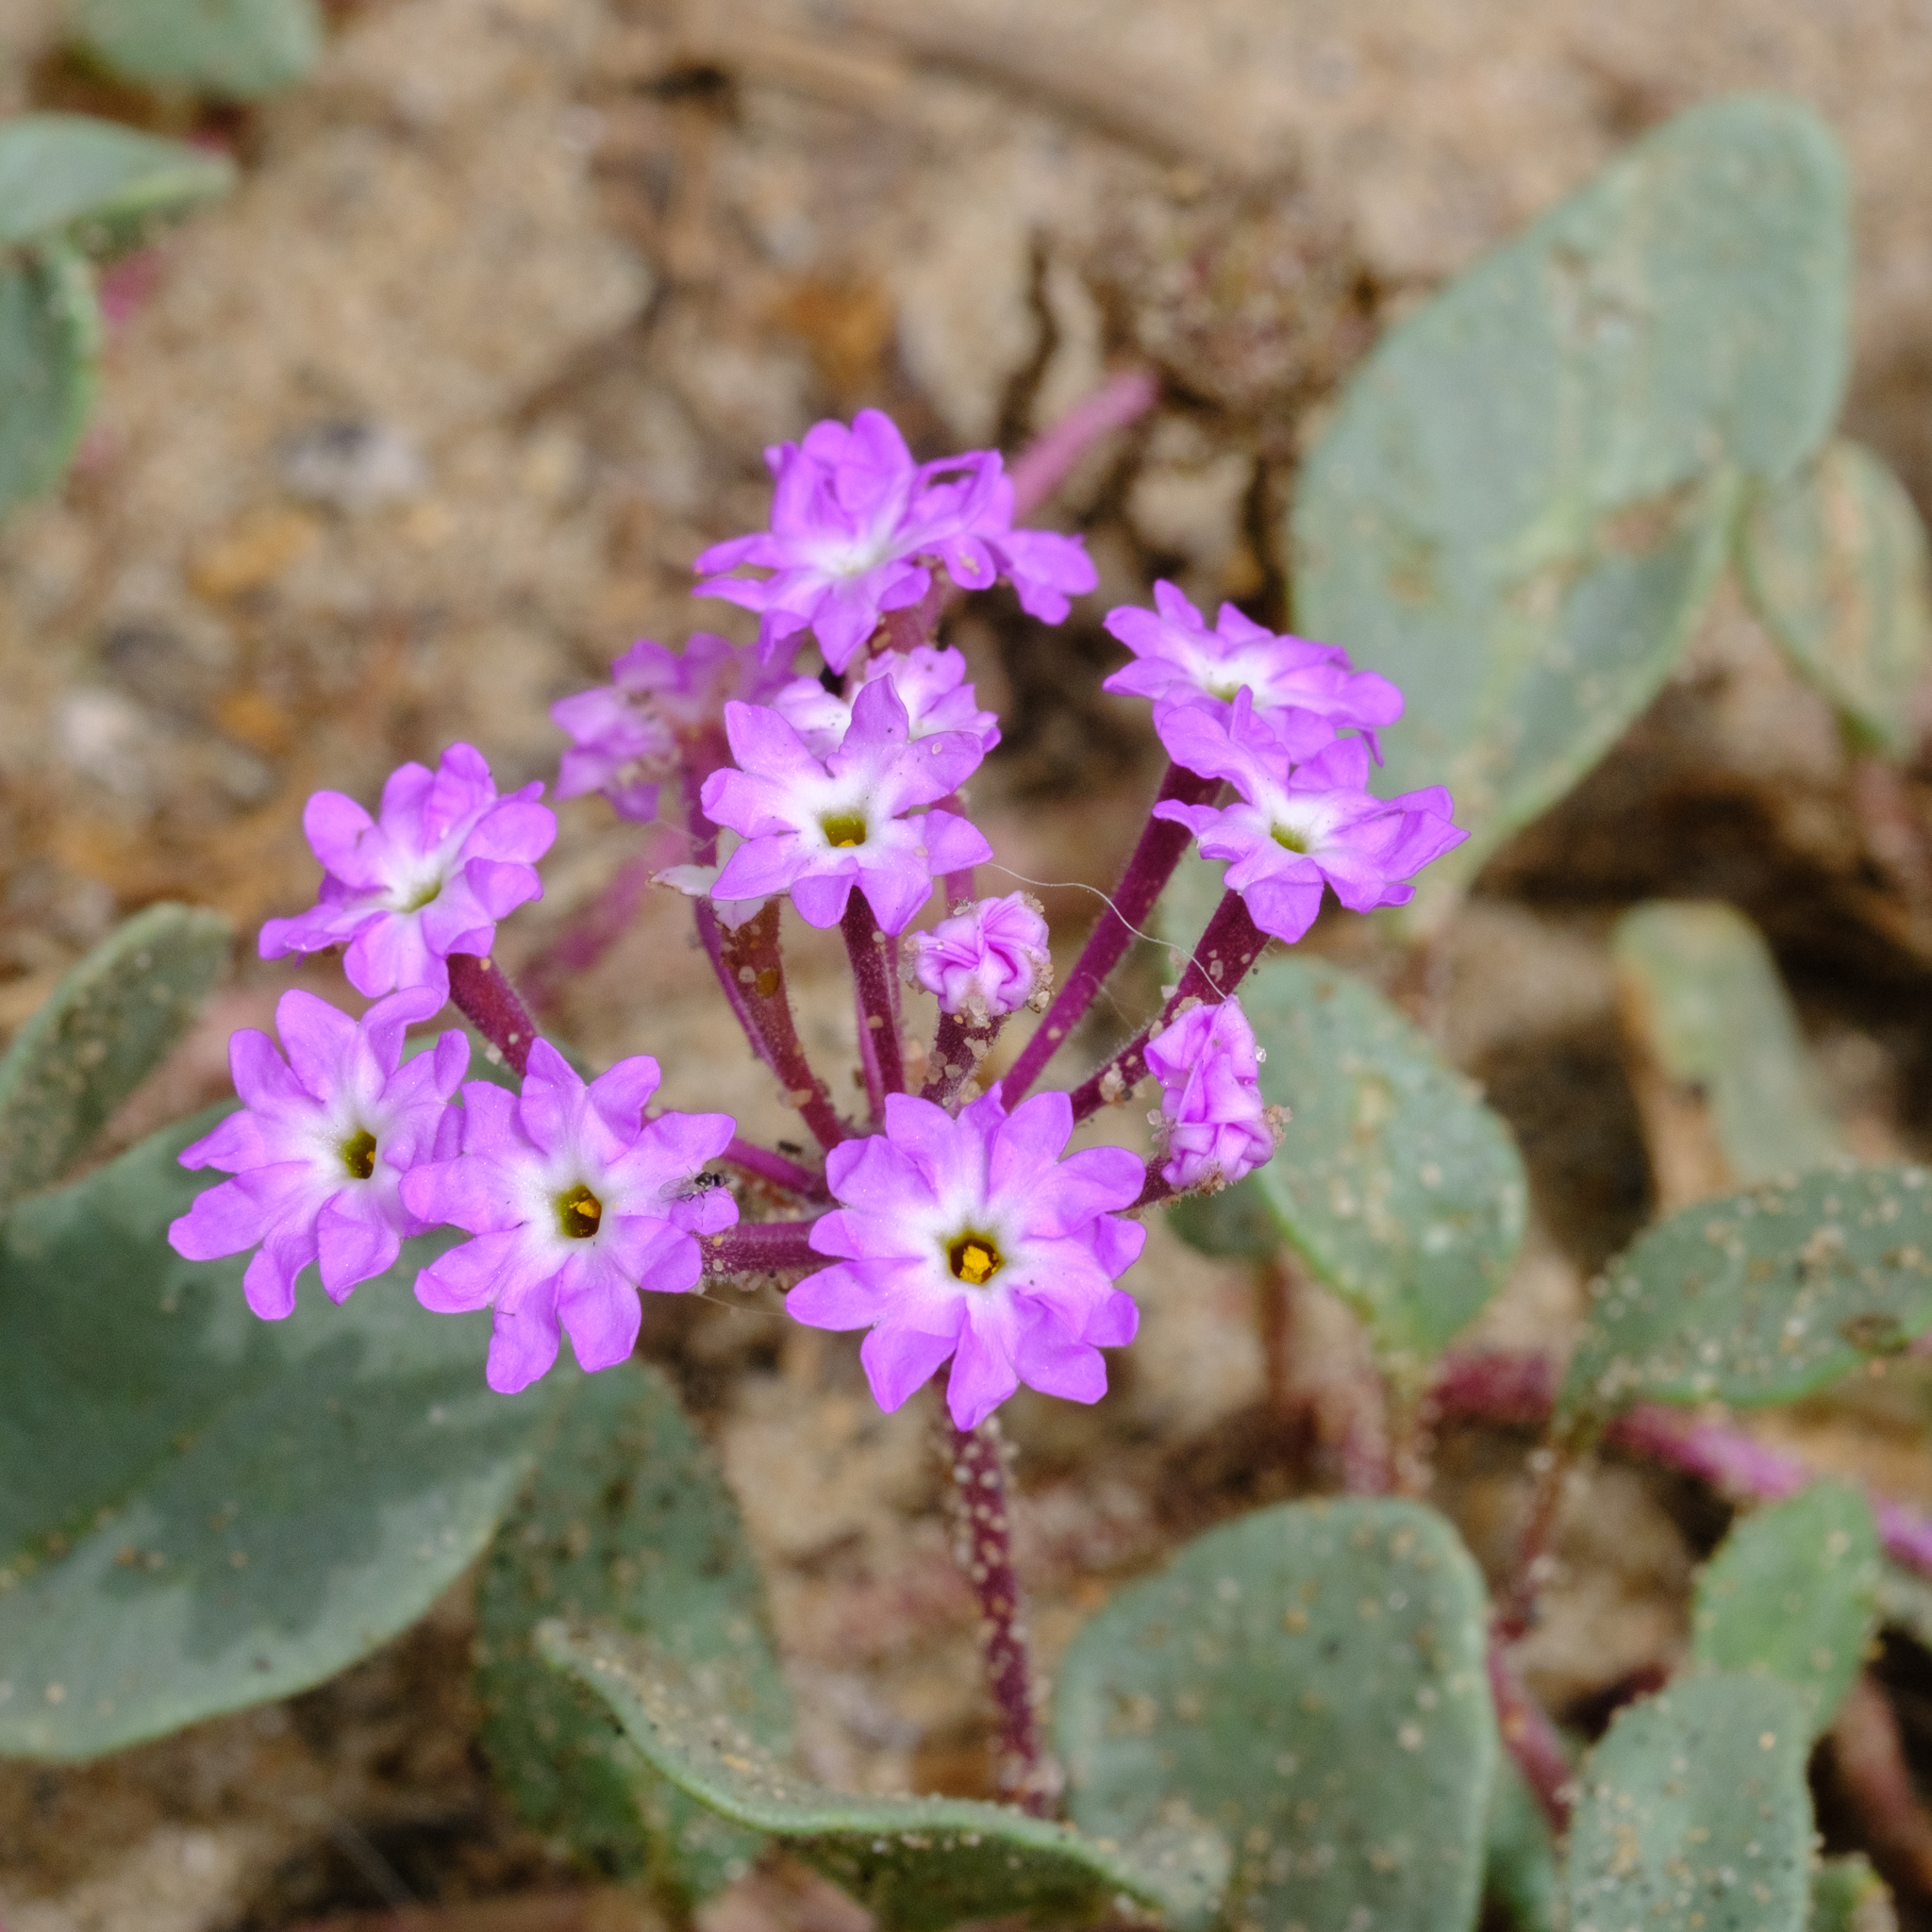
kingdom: Plantae
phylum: Tracheophyta
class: Magnoliopsida
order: Caryophyllales
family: Nyctaginaceae
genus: Abronia
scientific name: Abronia umbellata
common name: Sand-verbena
